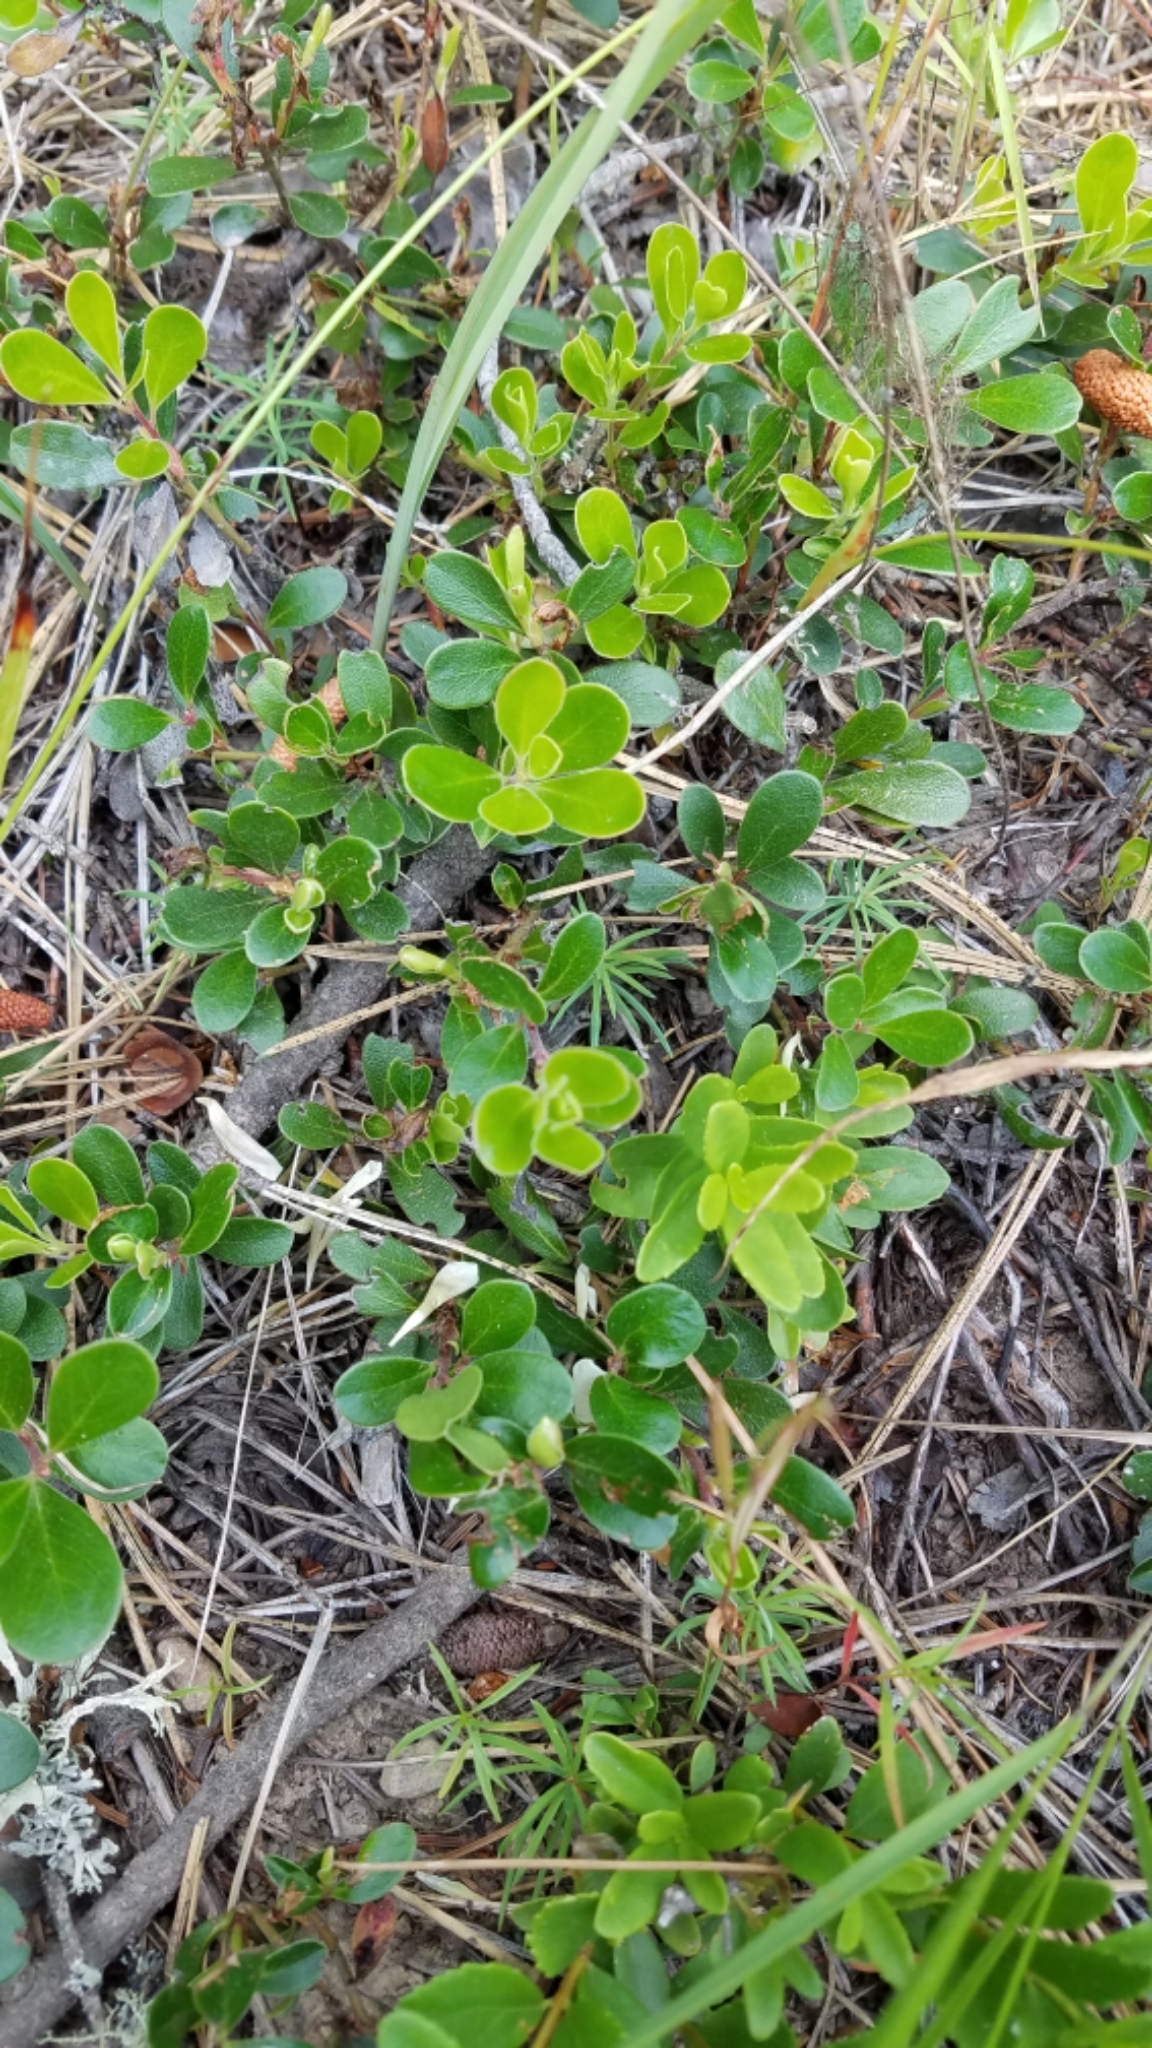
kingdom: Plantae
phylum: Tracheophyta
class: Magnoliopsida
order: Ericales
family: Ericaceae
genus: Arctostaphylos
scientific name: Arctostaphylos uva-ursi
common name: Bearberry
